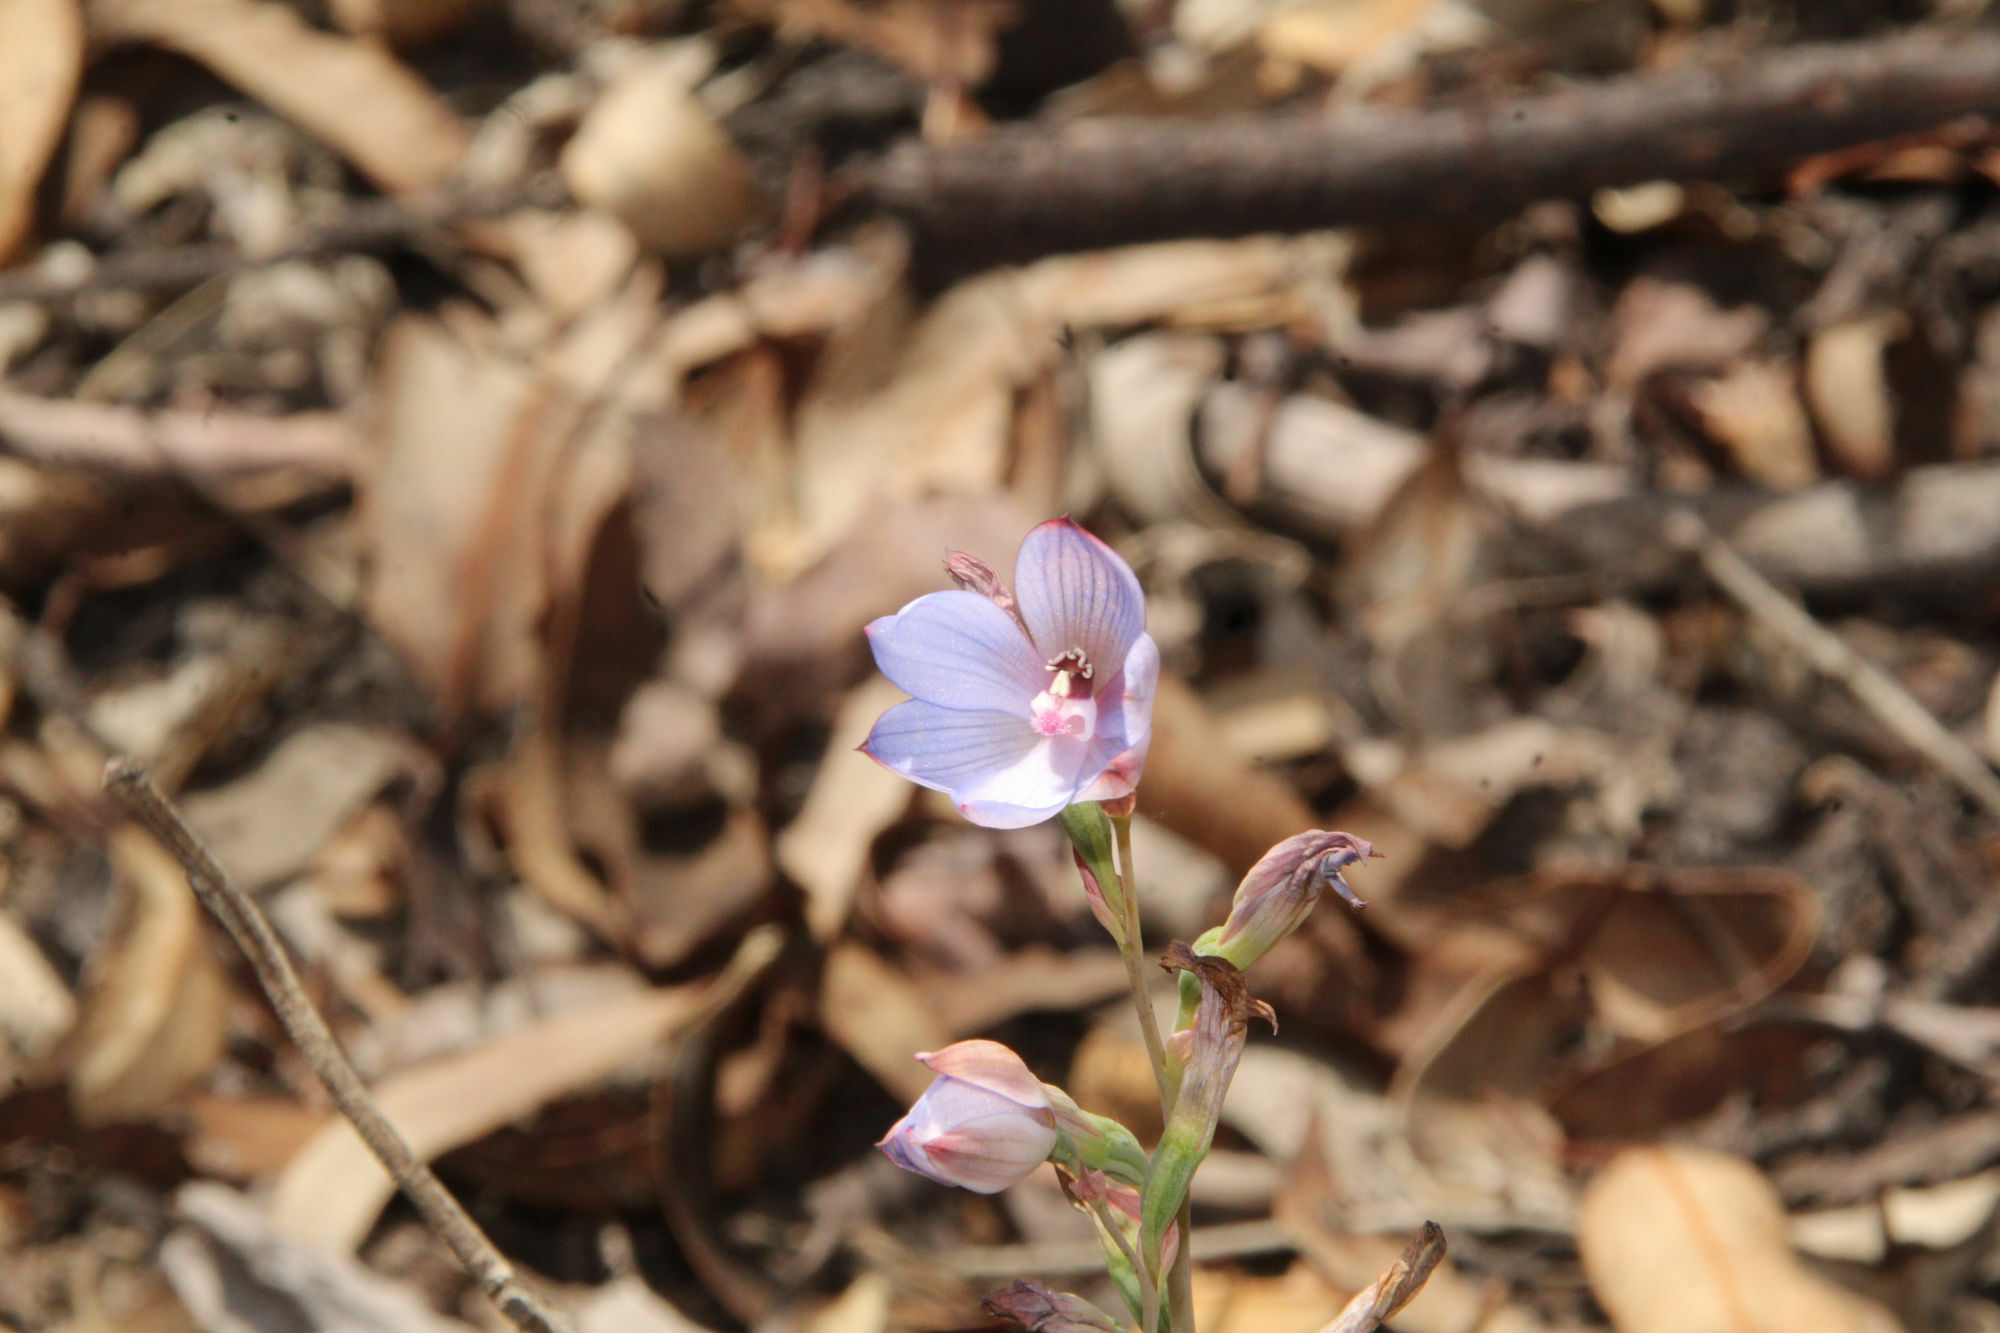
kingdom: Plantae
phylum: Tracheophyta
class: Liliopsida
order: Asparagales
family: Orchidaceae
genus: Thelymitra
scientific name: Thelymitra latiloba
